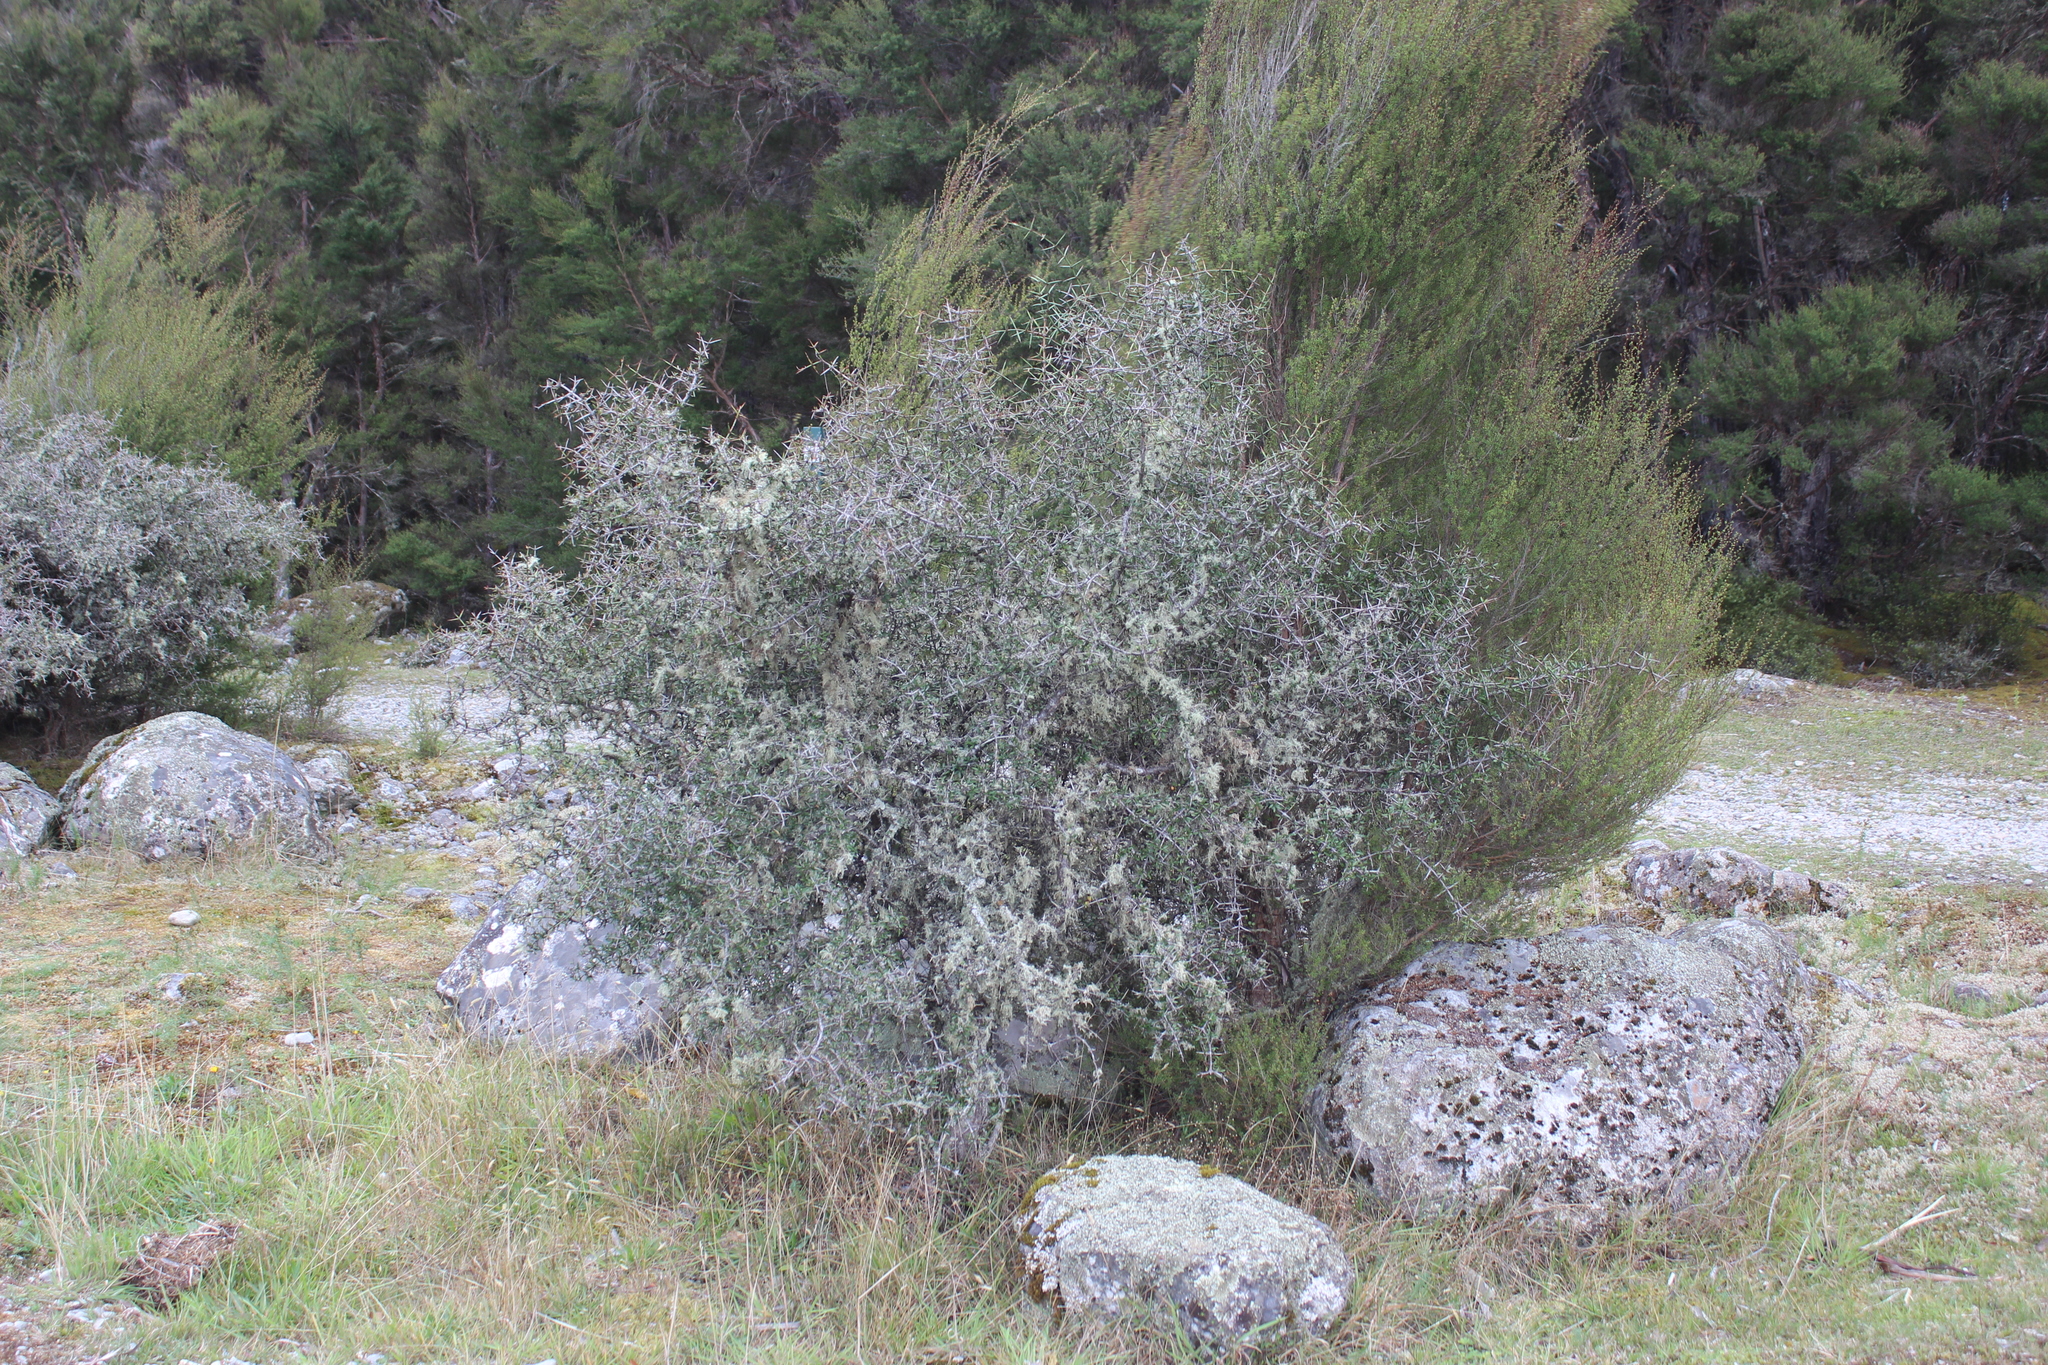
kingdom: Plantae
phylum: Tracheophyta
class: Magnoliopsida
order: Rosales
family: Rhamnaceae
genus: Discaria
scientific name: Discaria toumatou
